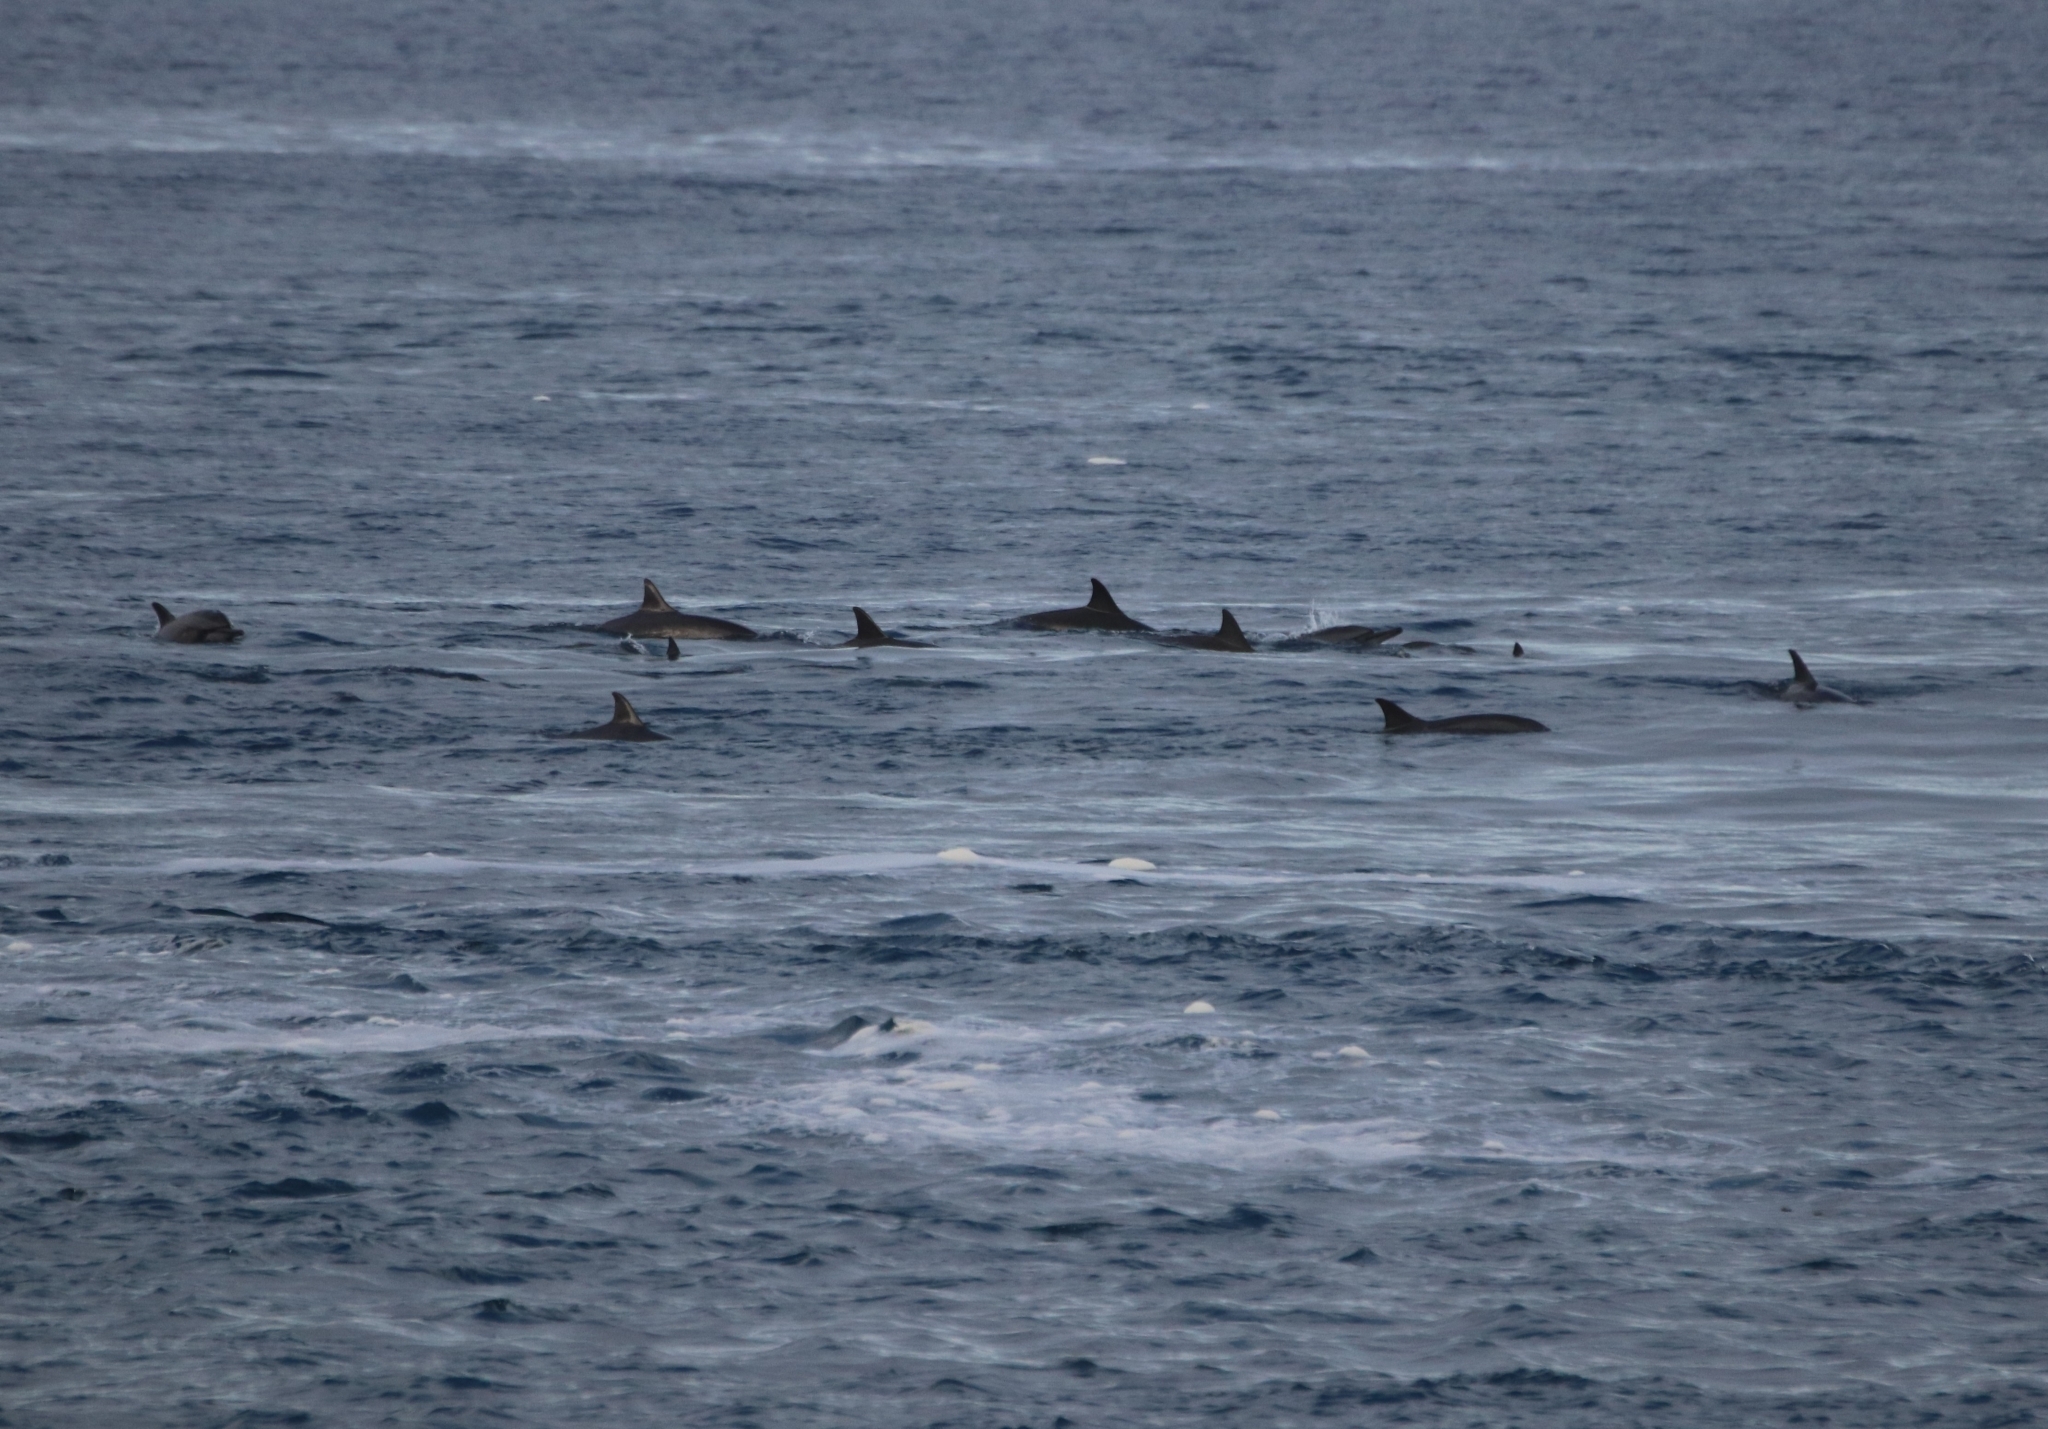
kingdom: Animalia
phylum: Chordata
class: Mammalia
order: Cetacea
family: Delphinidae
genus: Stenella
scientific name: Stenella longirostris
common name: Spinner dolphin
